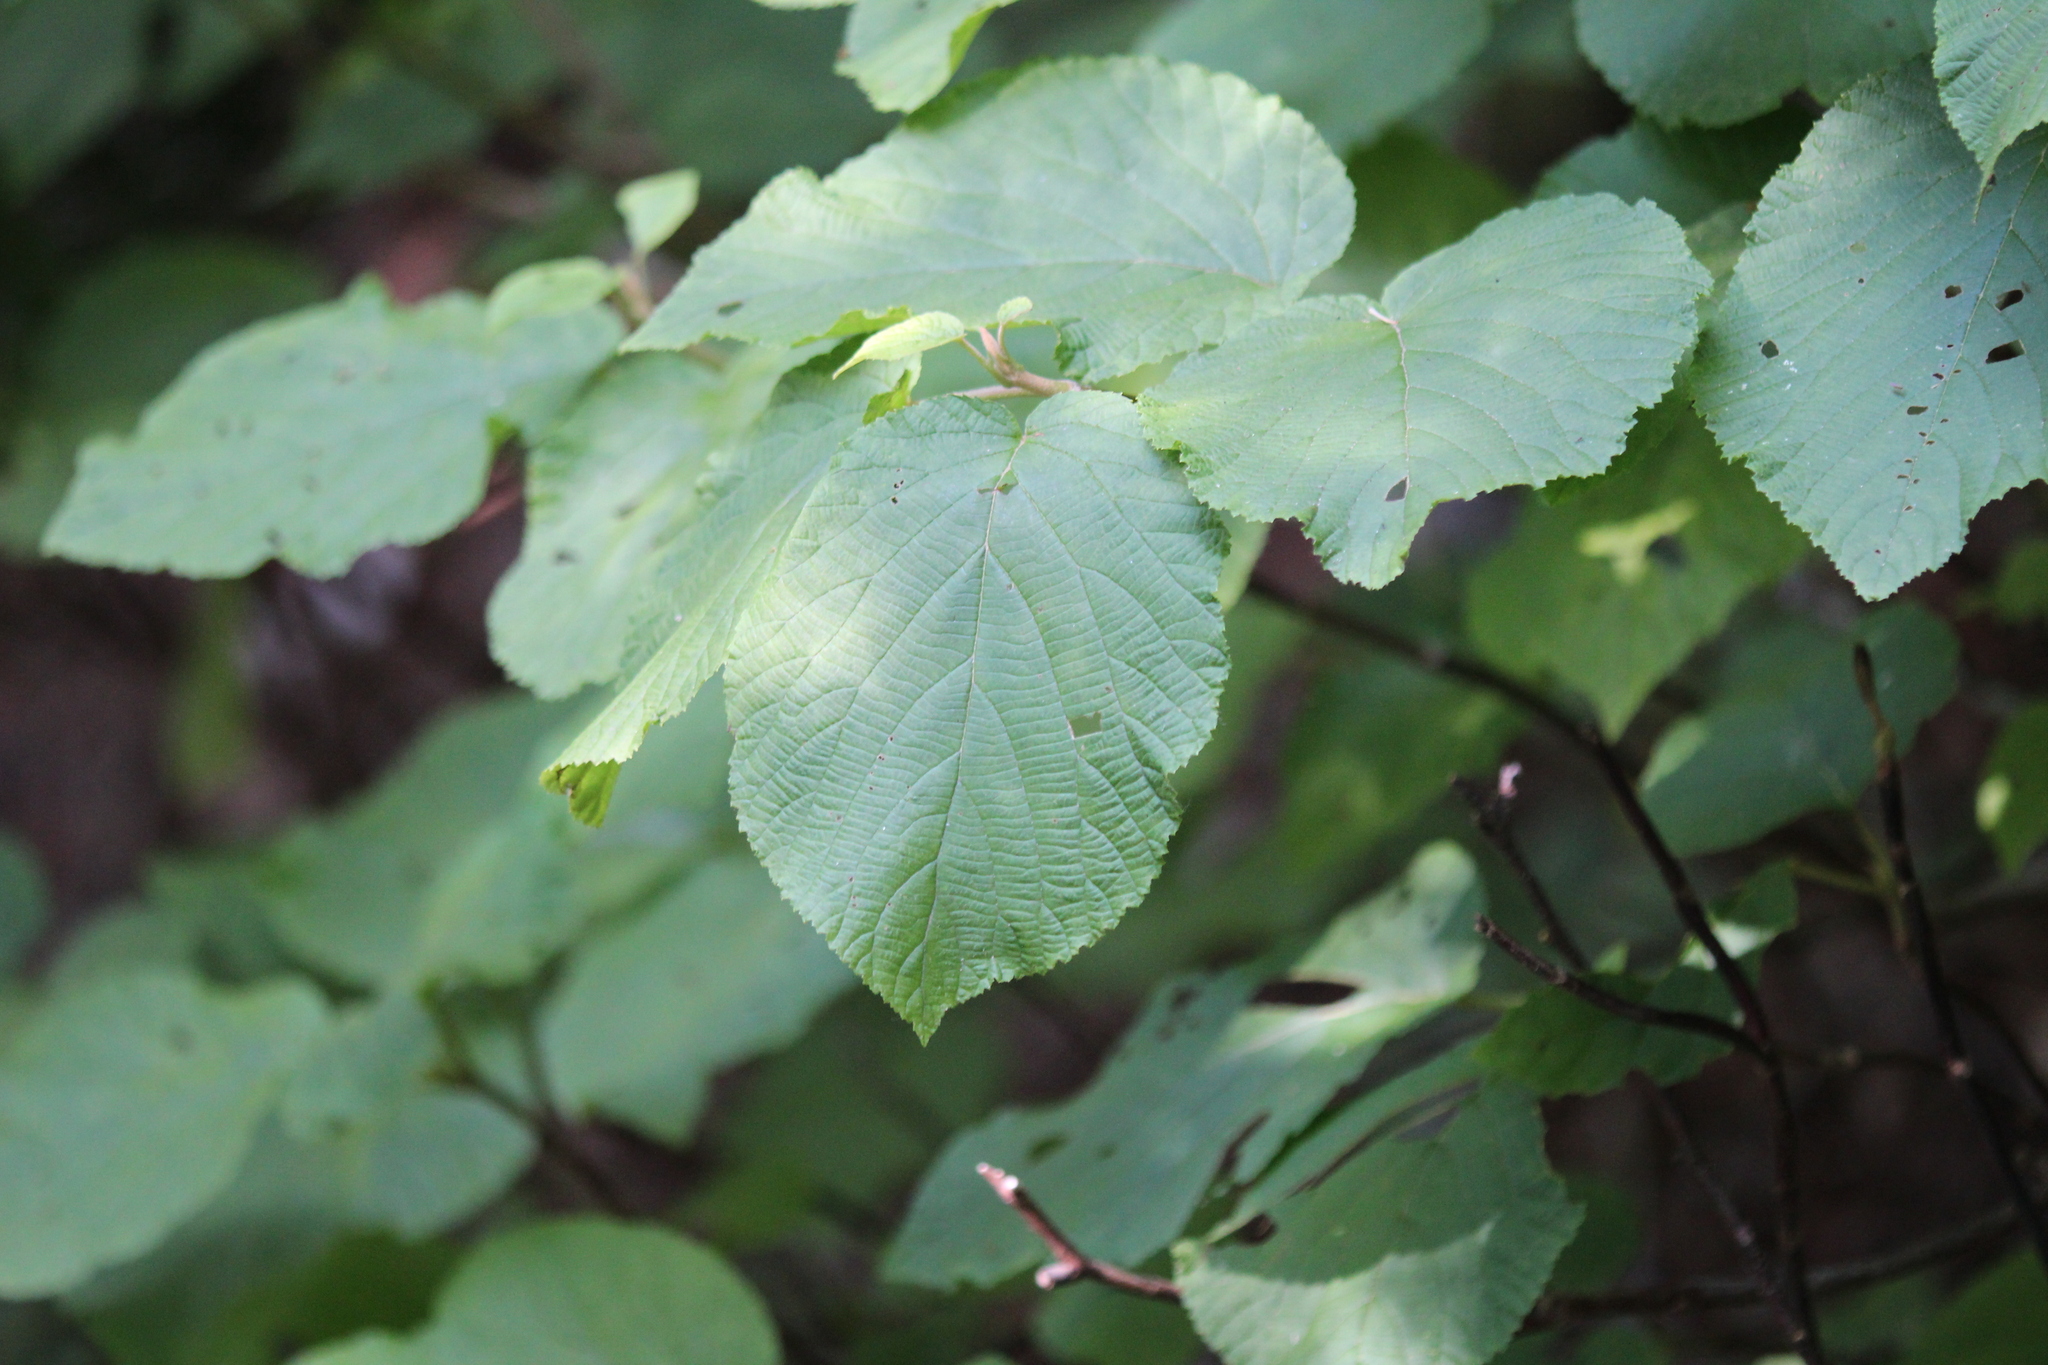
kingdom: Plantae
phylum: Tracheophyta
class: Magnoliopsida
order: Dipsacales
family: Viburnaceae
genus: Viburnum
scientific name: Viburnum lantanoides
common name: Hobblebush
